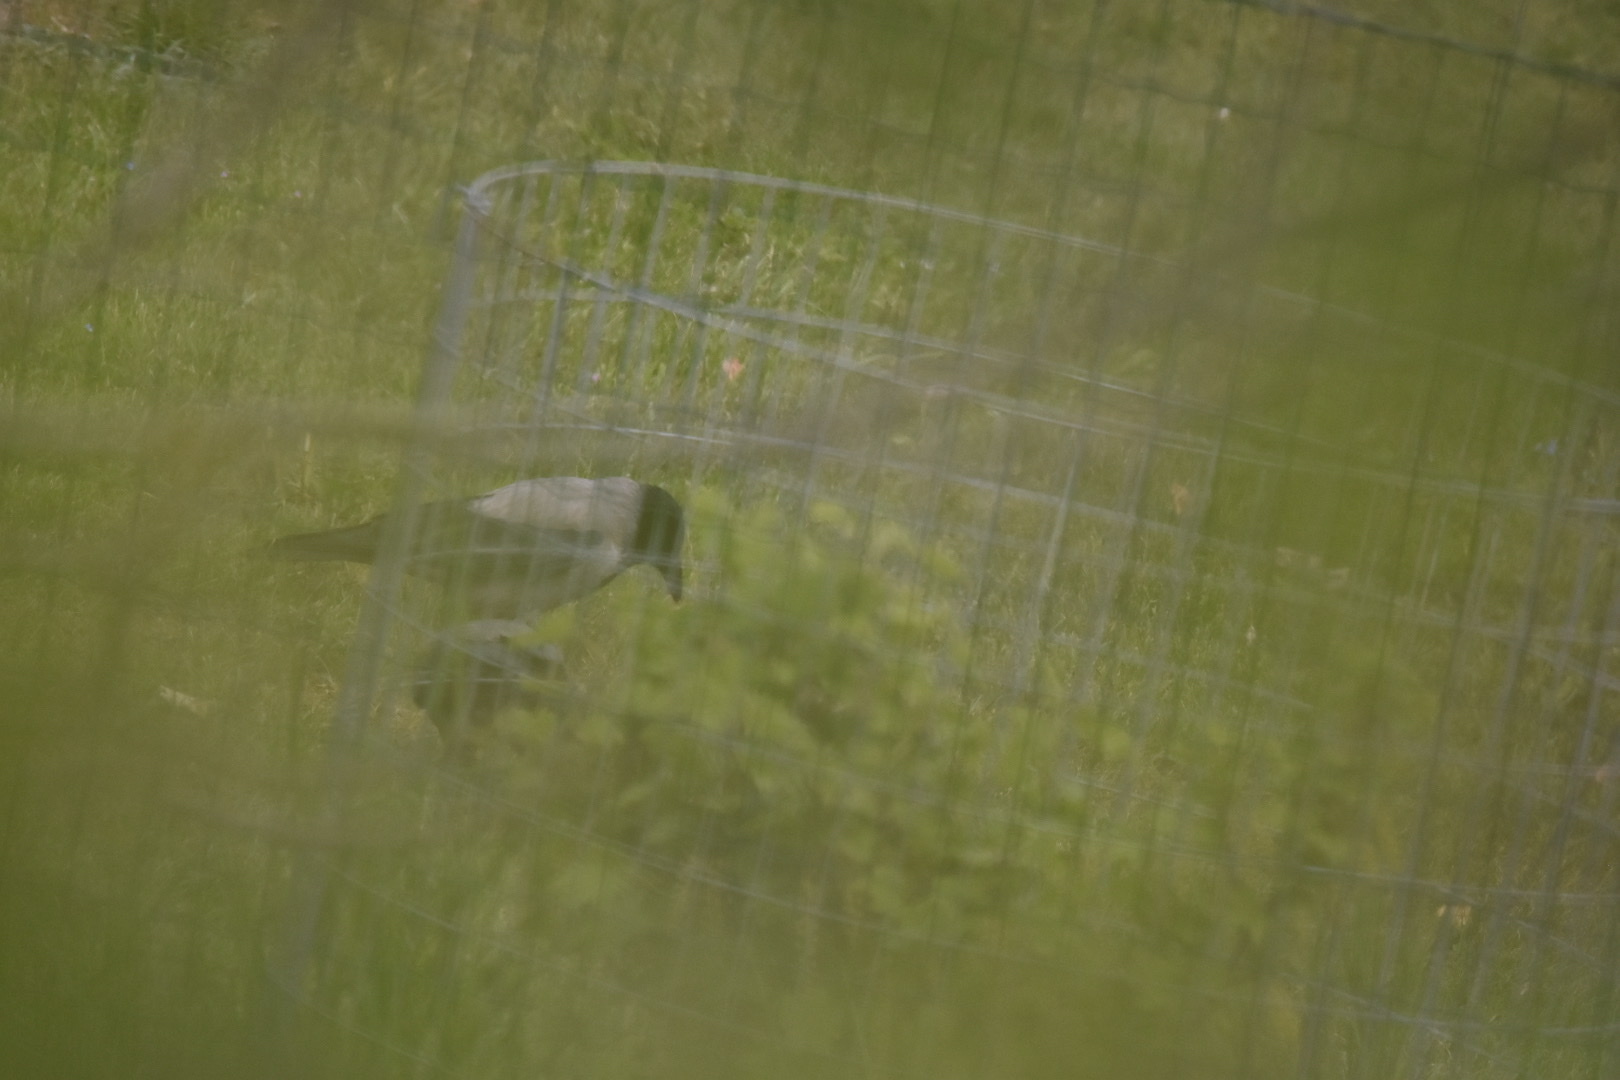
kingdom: Animalia
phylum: Chordata
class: Aves
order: Passeriformes
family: Corvidae
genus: Corvus
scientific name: Corvus cornix
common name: Hooded crow
